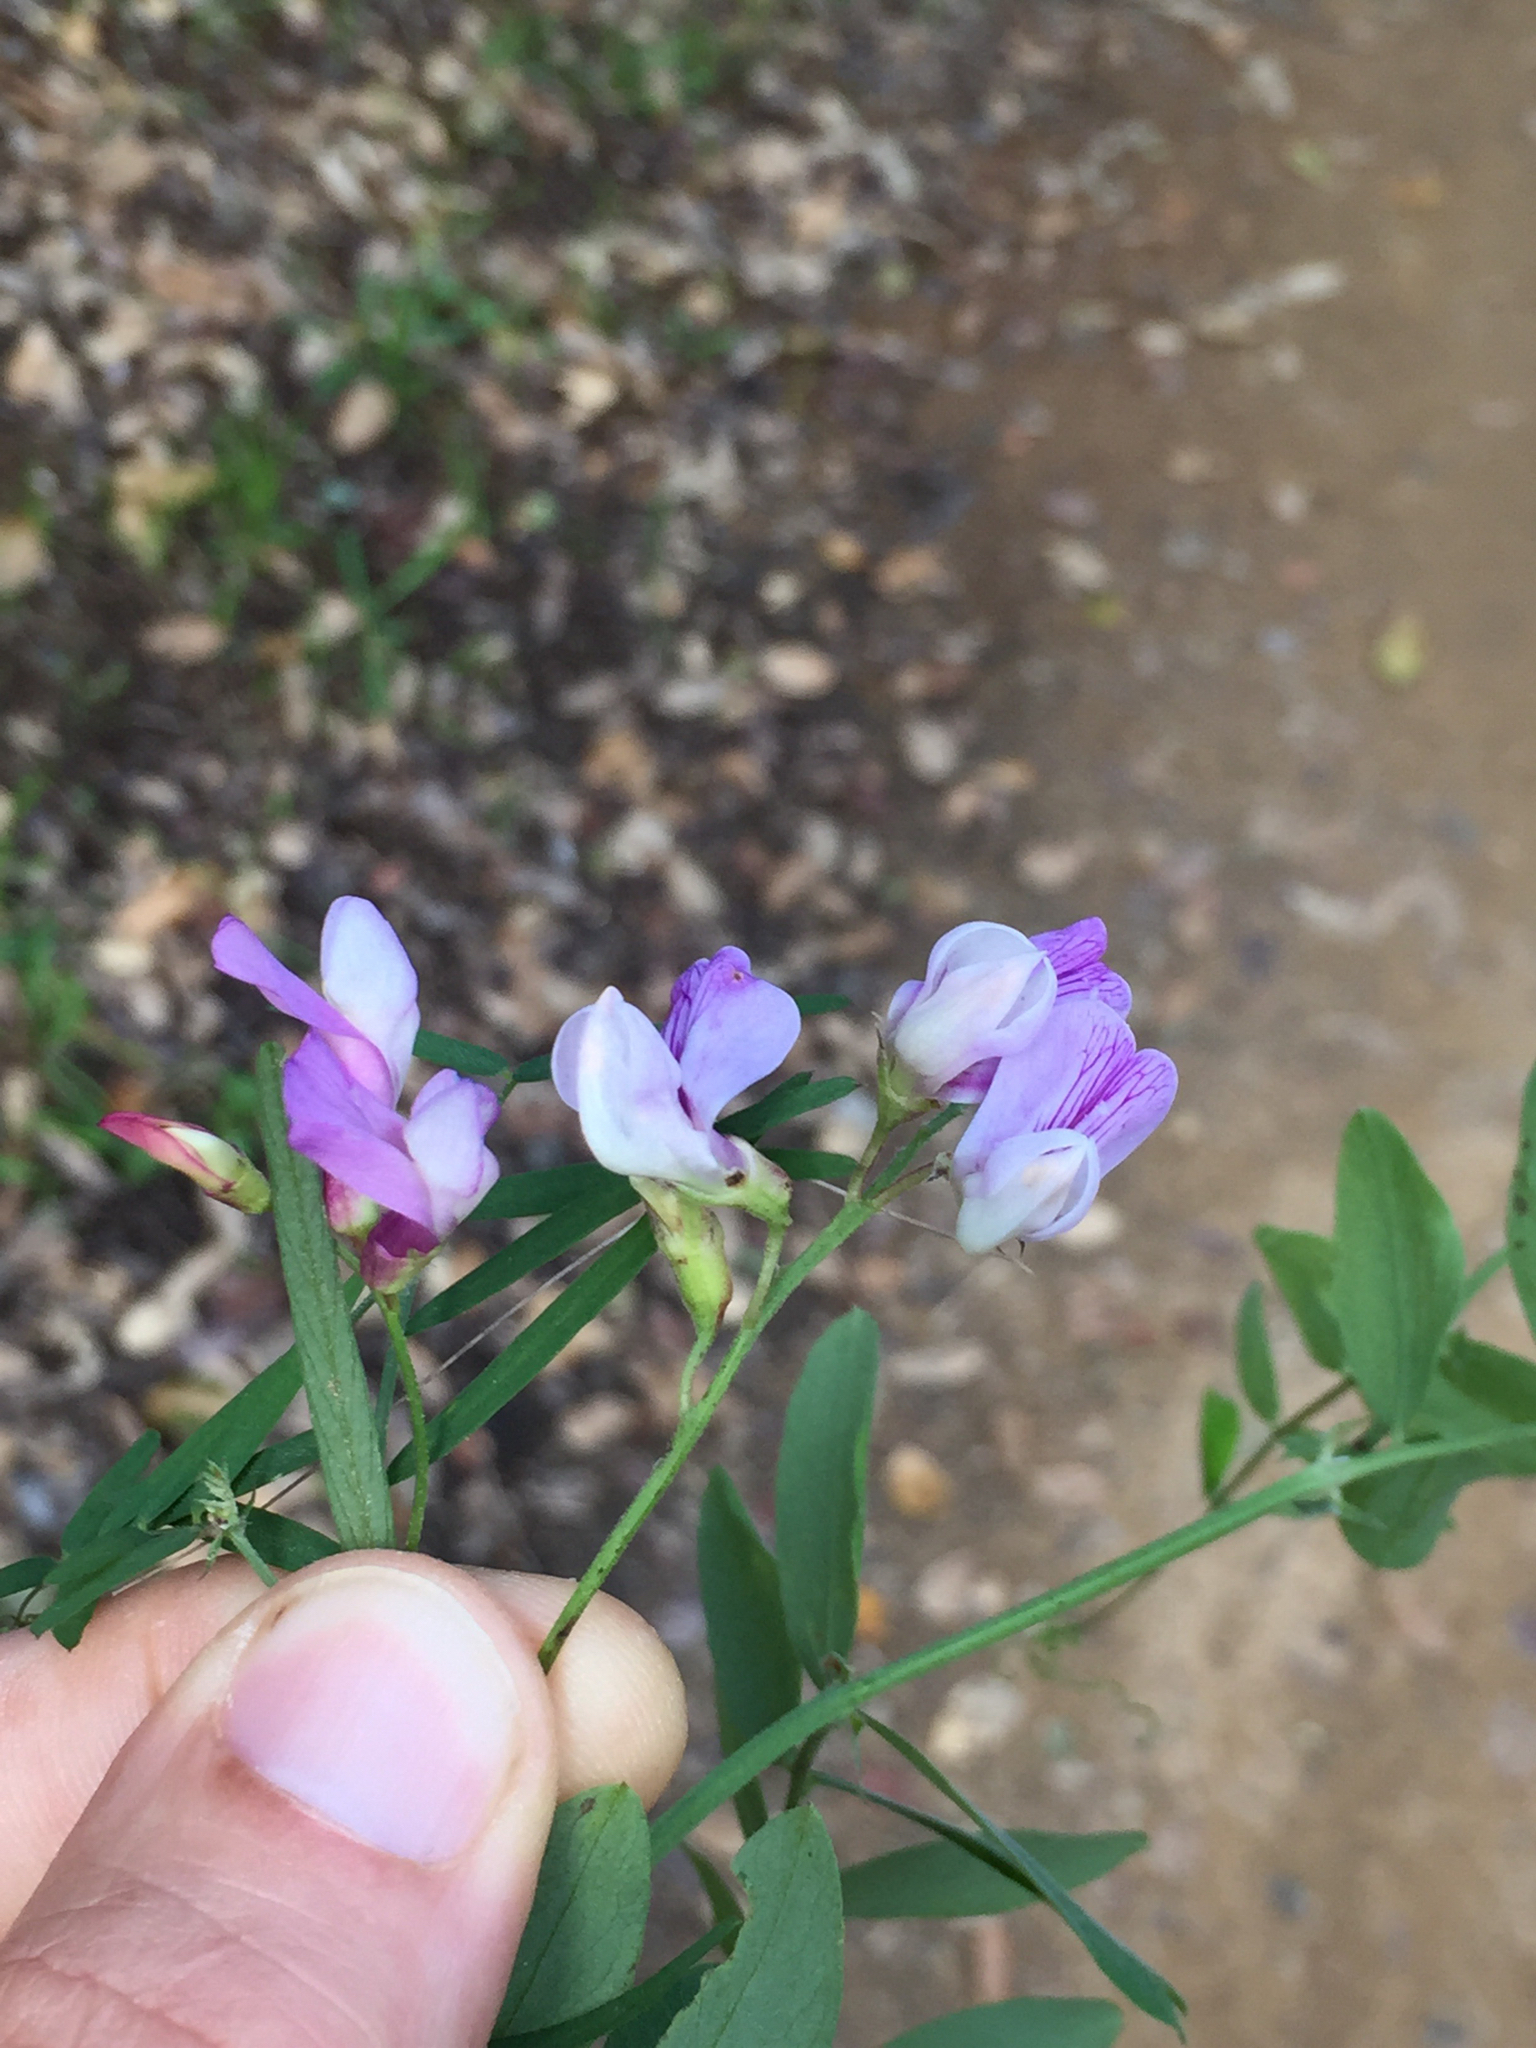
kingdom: Plantae
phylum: Tracheophyta
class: Magnoliopsida
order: Fabales
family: Fabaceae
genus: Vicia
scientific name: Vicia americana
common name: American vetch
